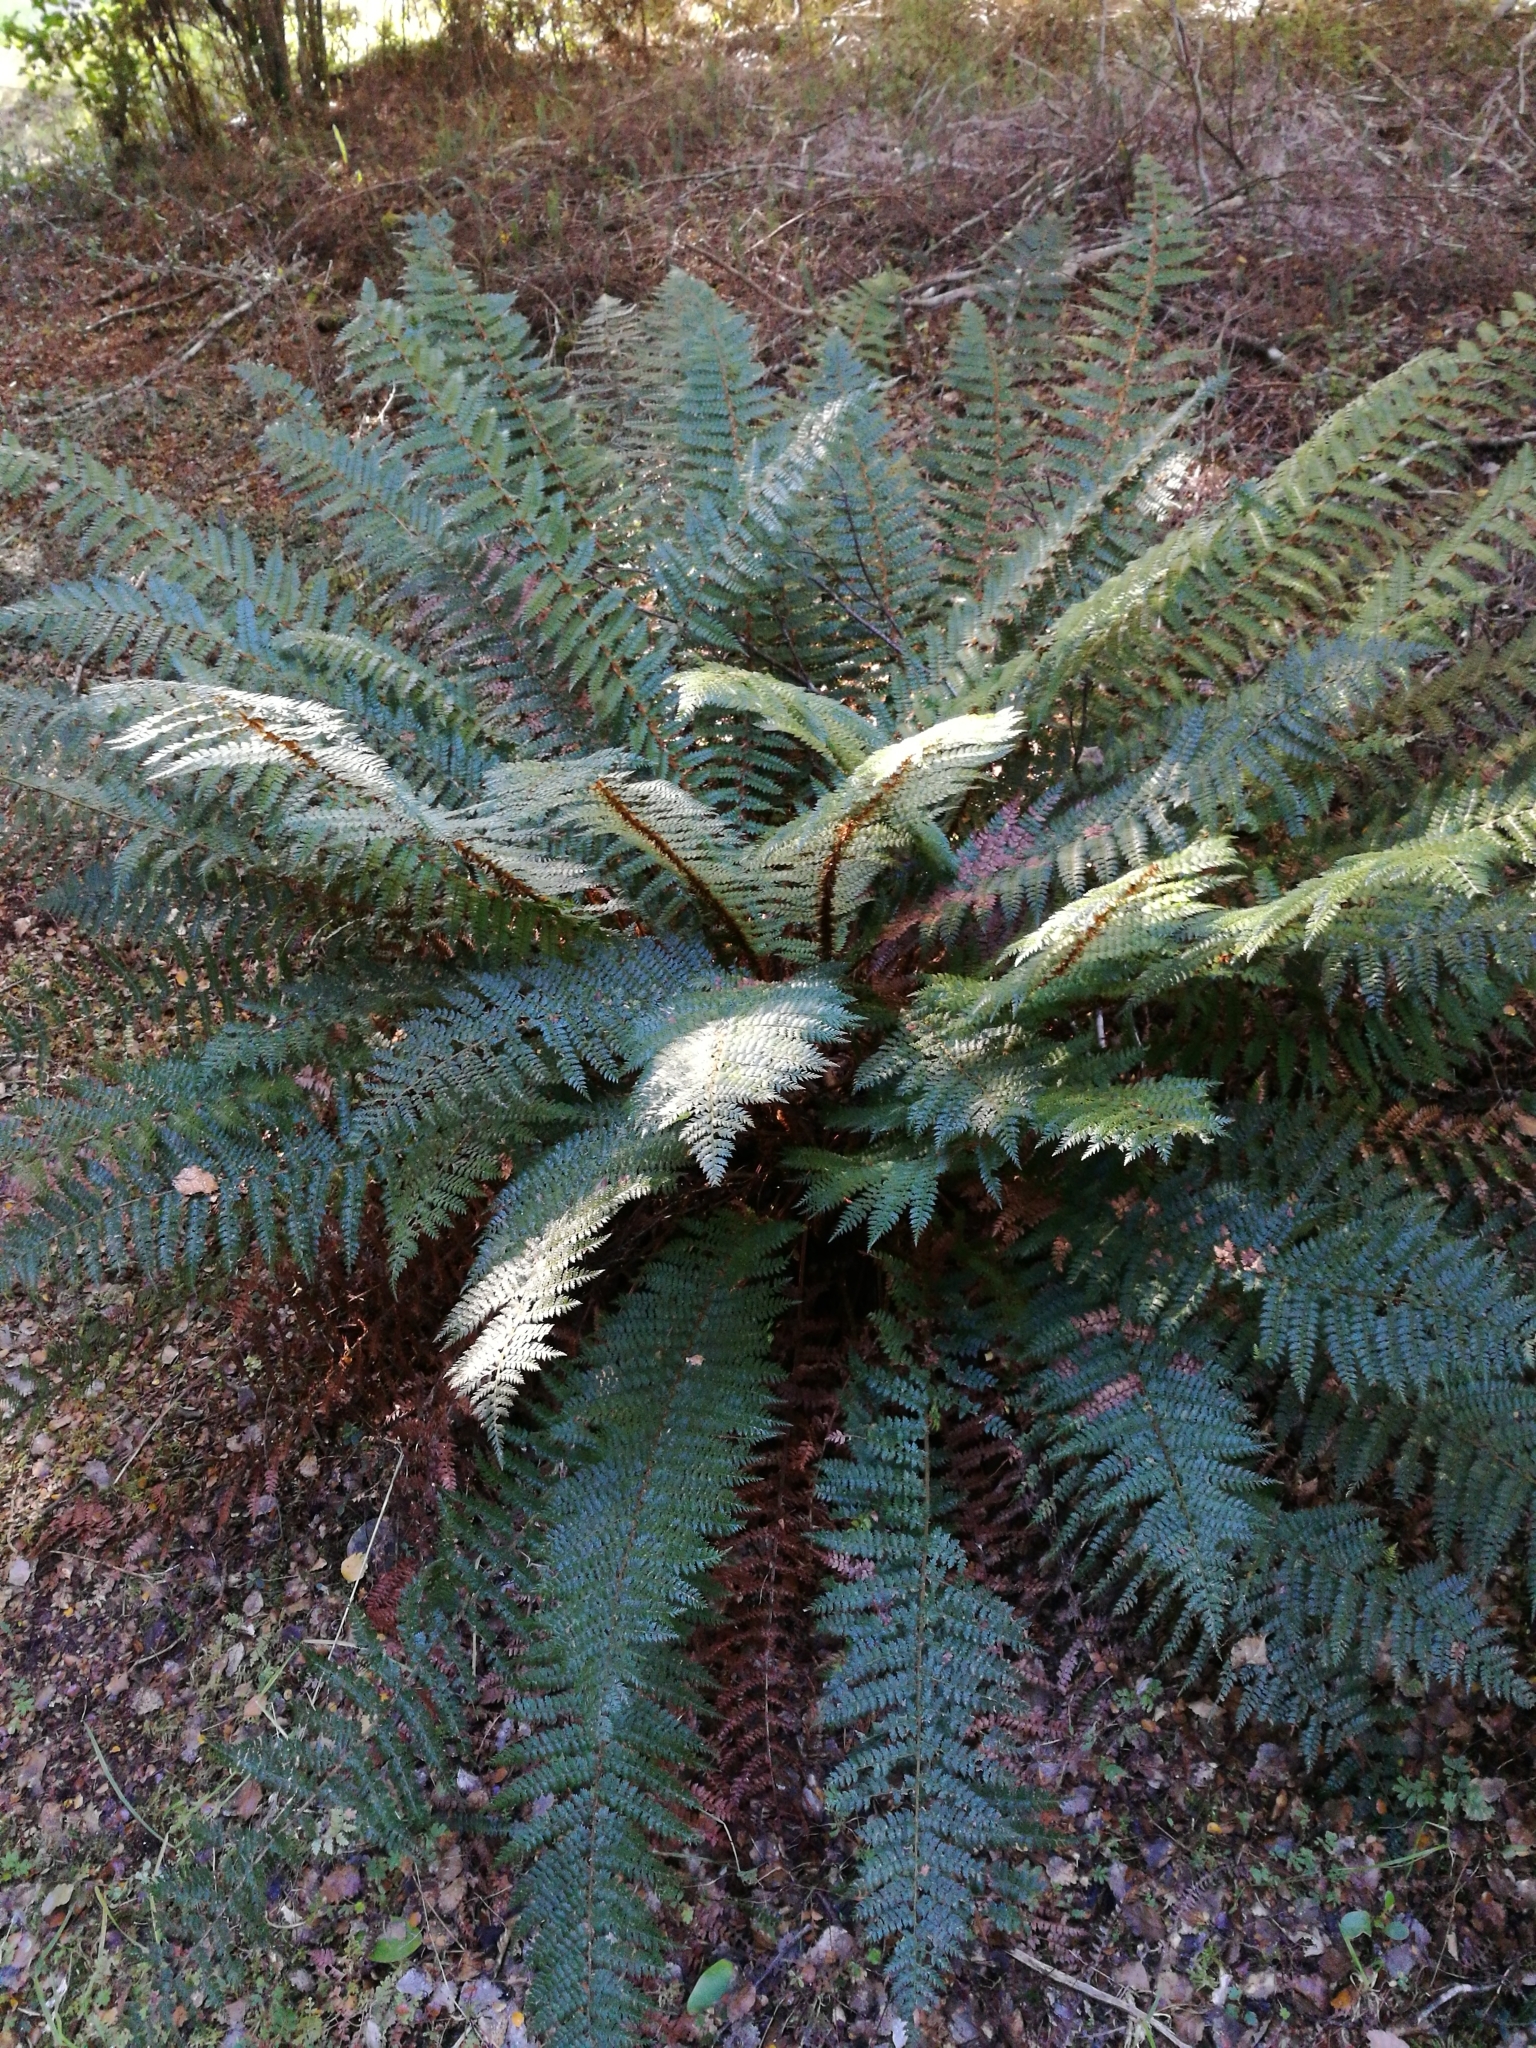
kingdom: Plantae
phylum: Tracheophyta
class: Polypodiopsida
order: Polypodiales
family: Dryopteridaceae
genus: Polystichum
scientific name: Polystichum vestitum
